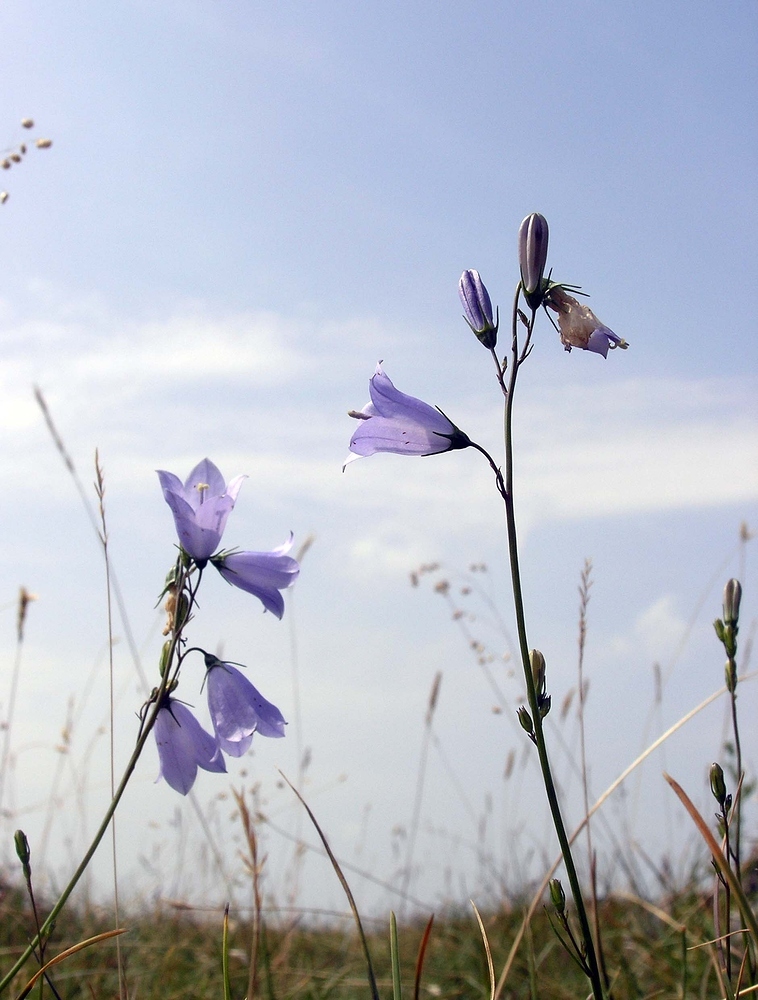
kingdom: Plantae
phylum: Tracheophyta
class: Magnoliopsida
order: Asterales
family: Campanulaceae
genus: Campanula
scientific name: Campanula rotundifolia
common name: Harebell
